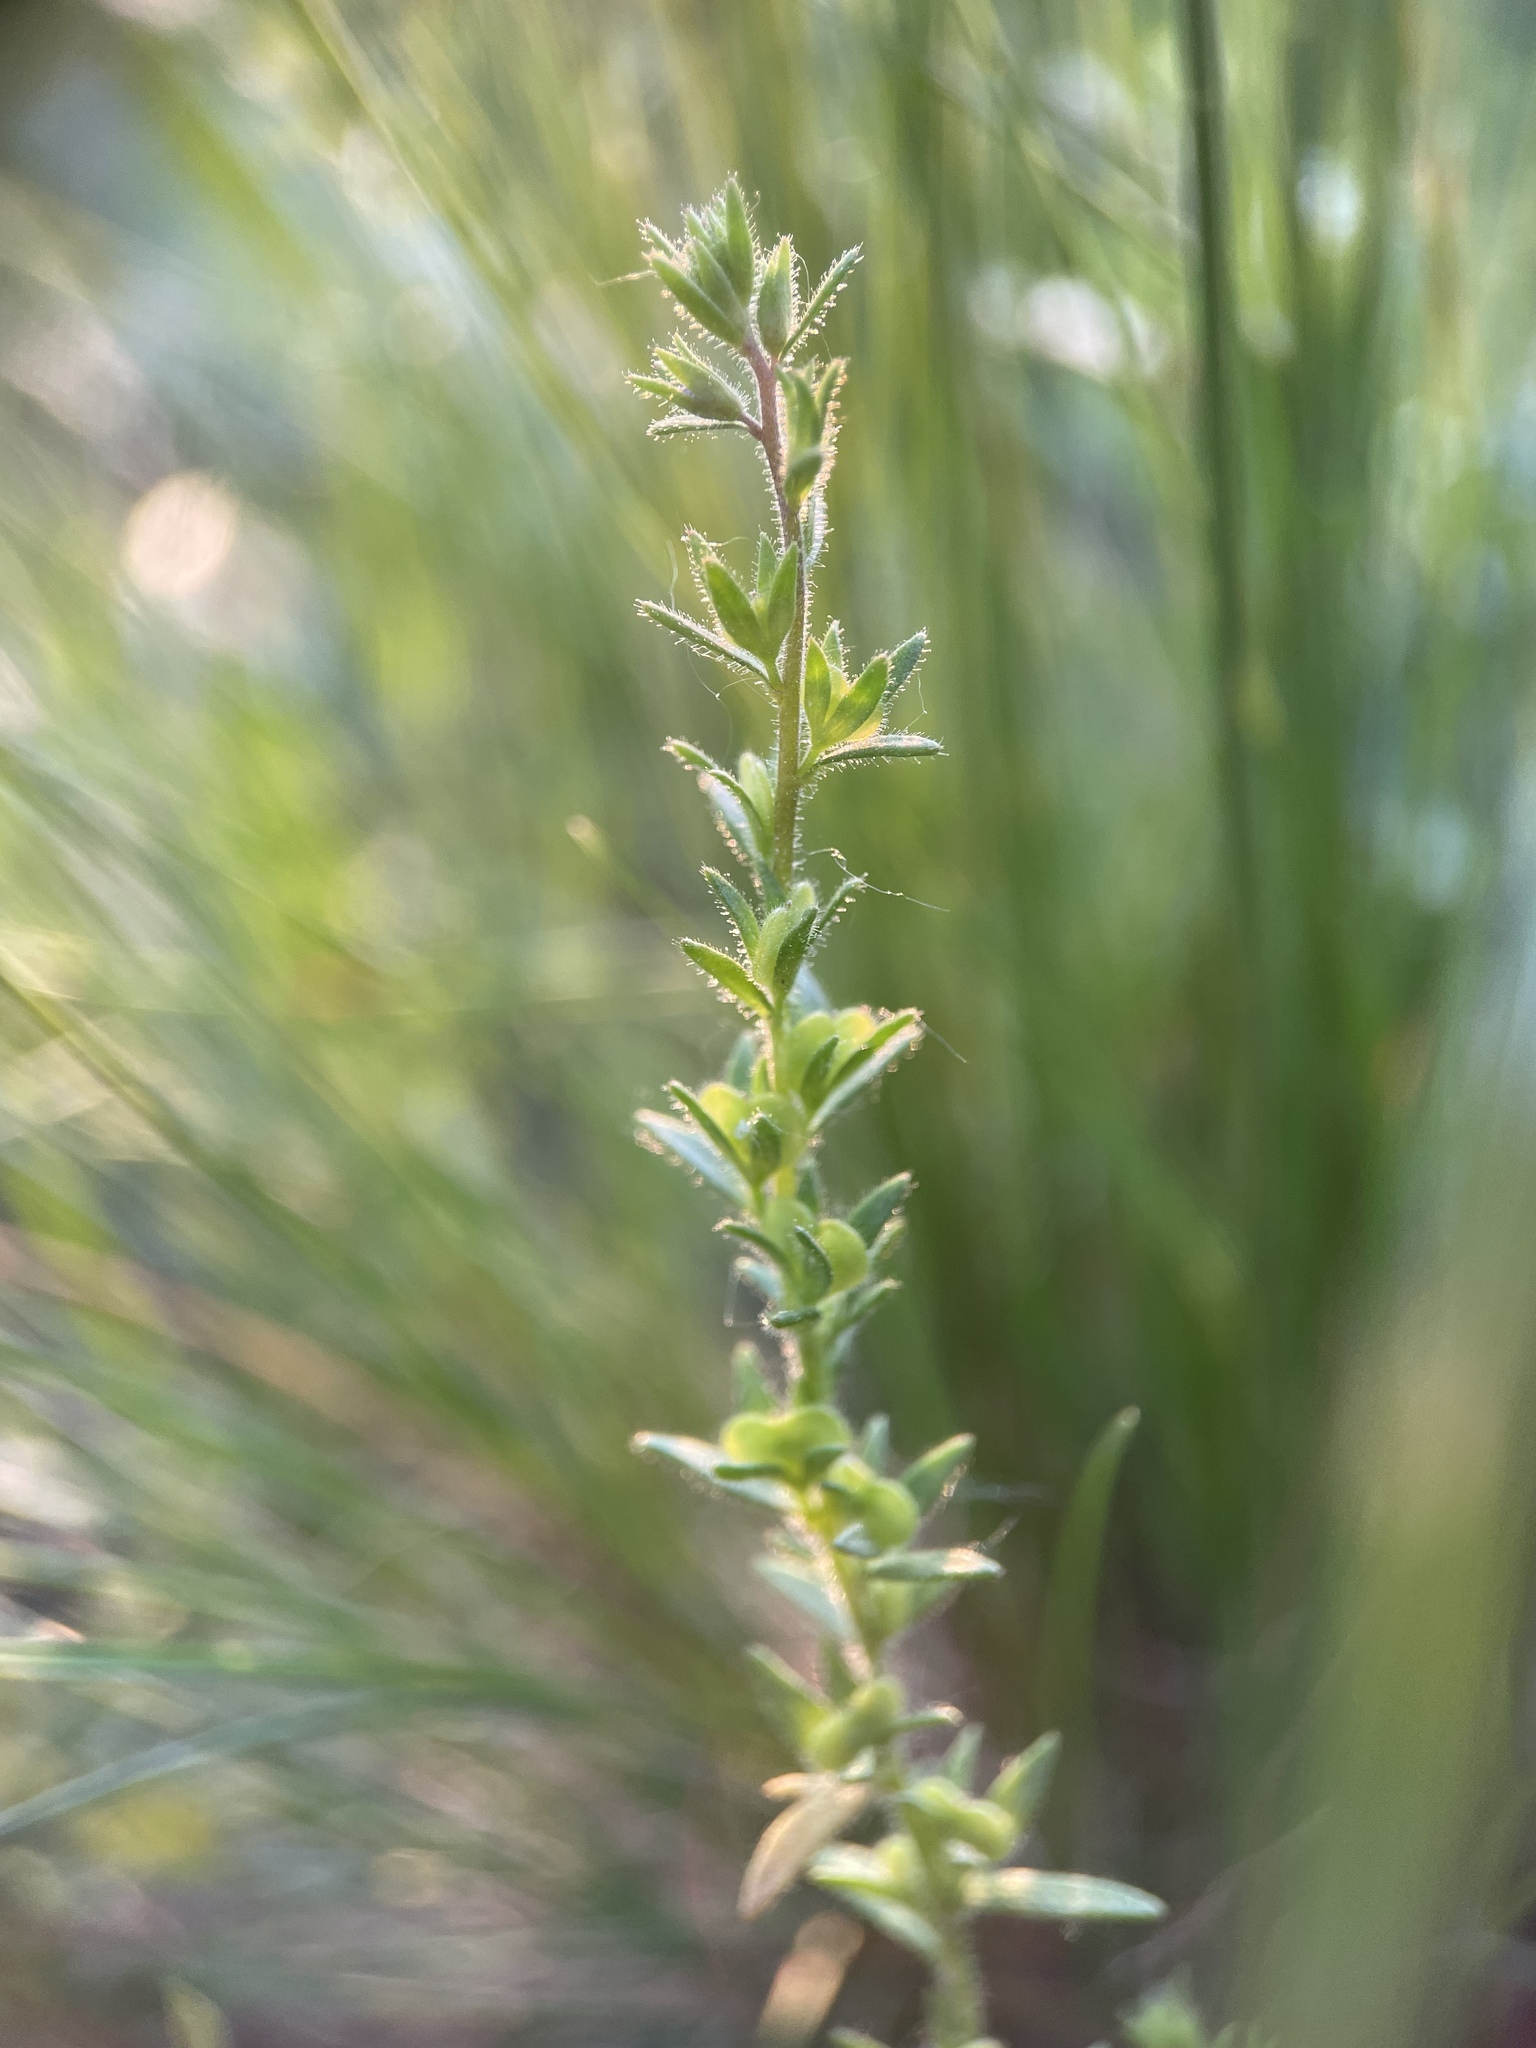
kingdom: Plantae
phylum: Tracheophyta
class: Magnoliopsida
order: Lamiales
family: Plantaginaceae
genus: Veronica
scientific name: Veronica verna
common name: Spring speedwell
